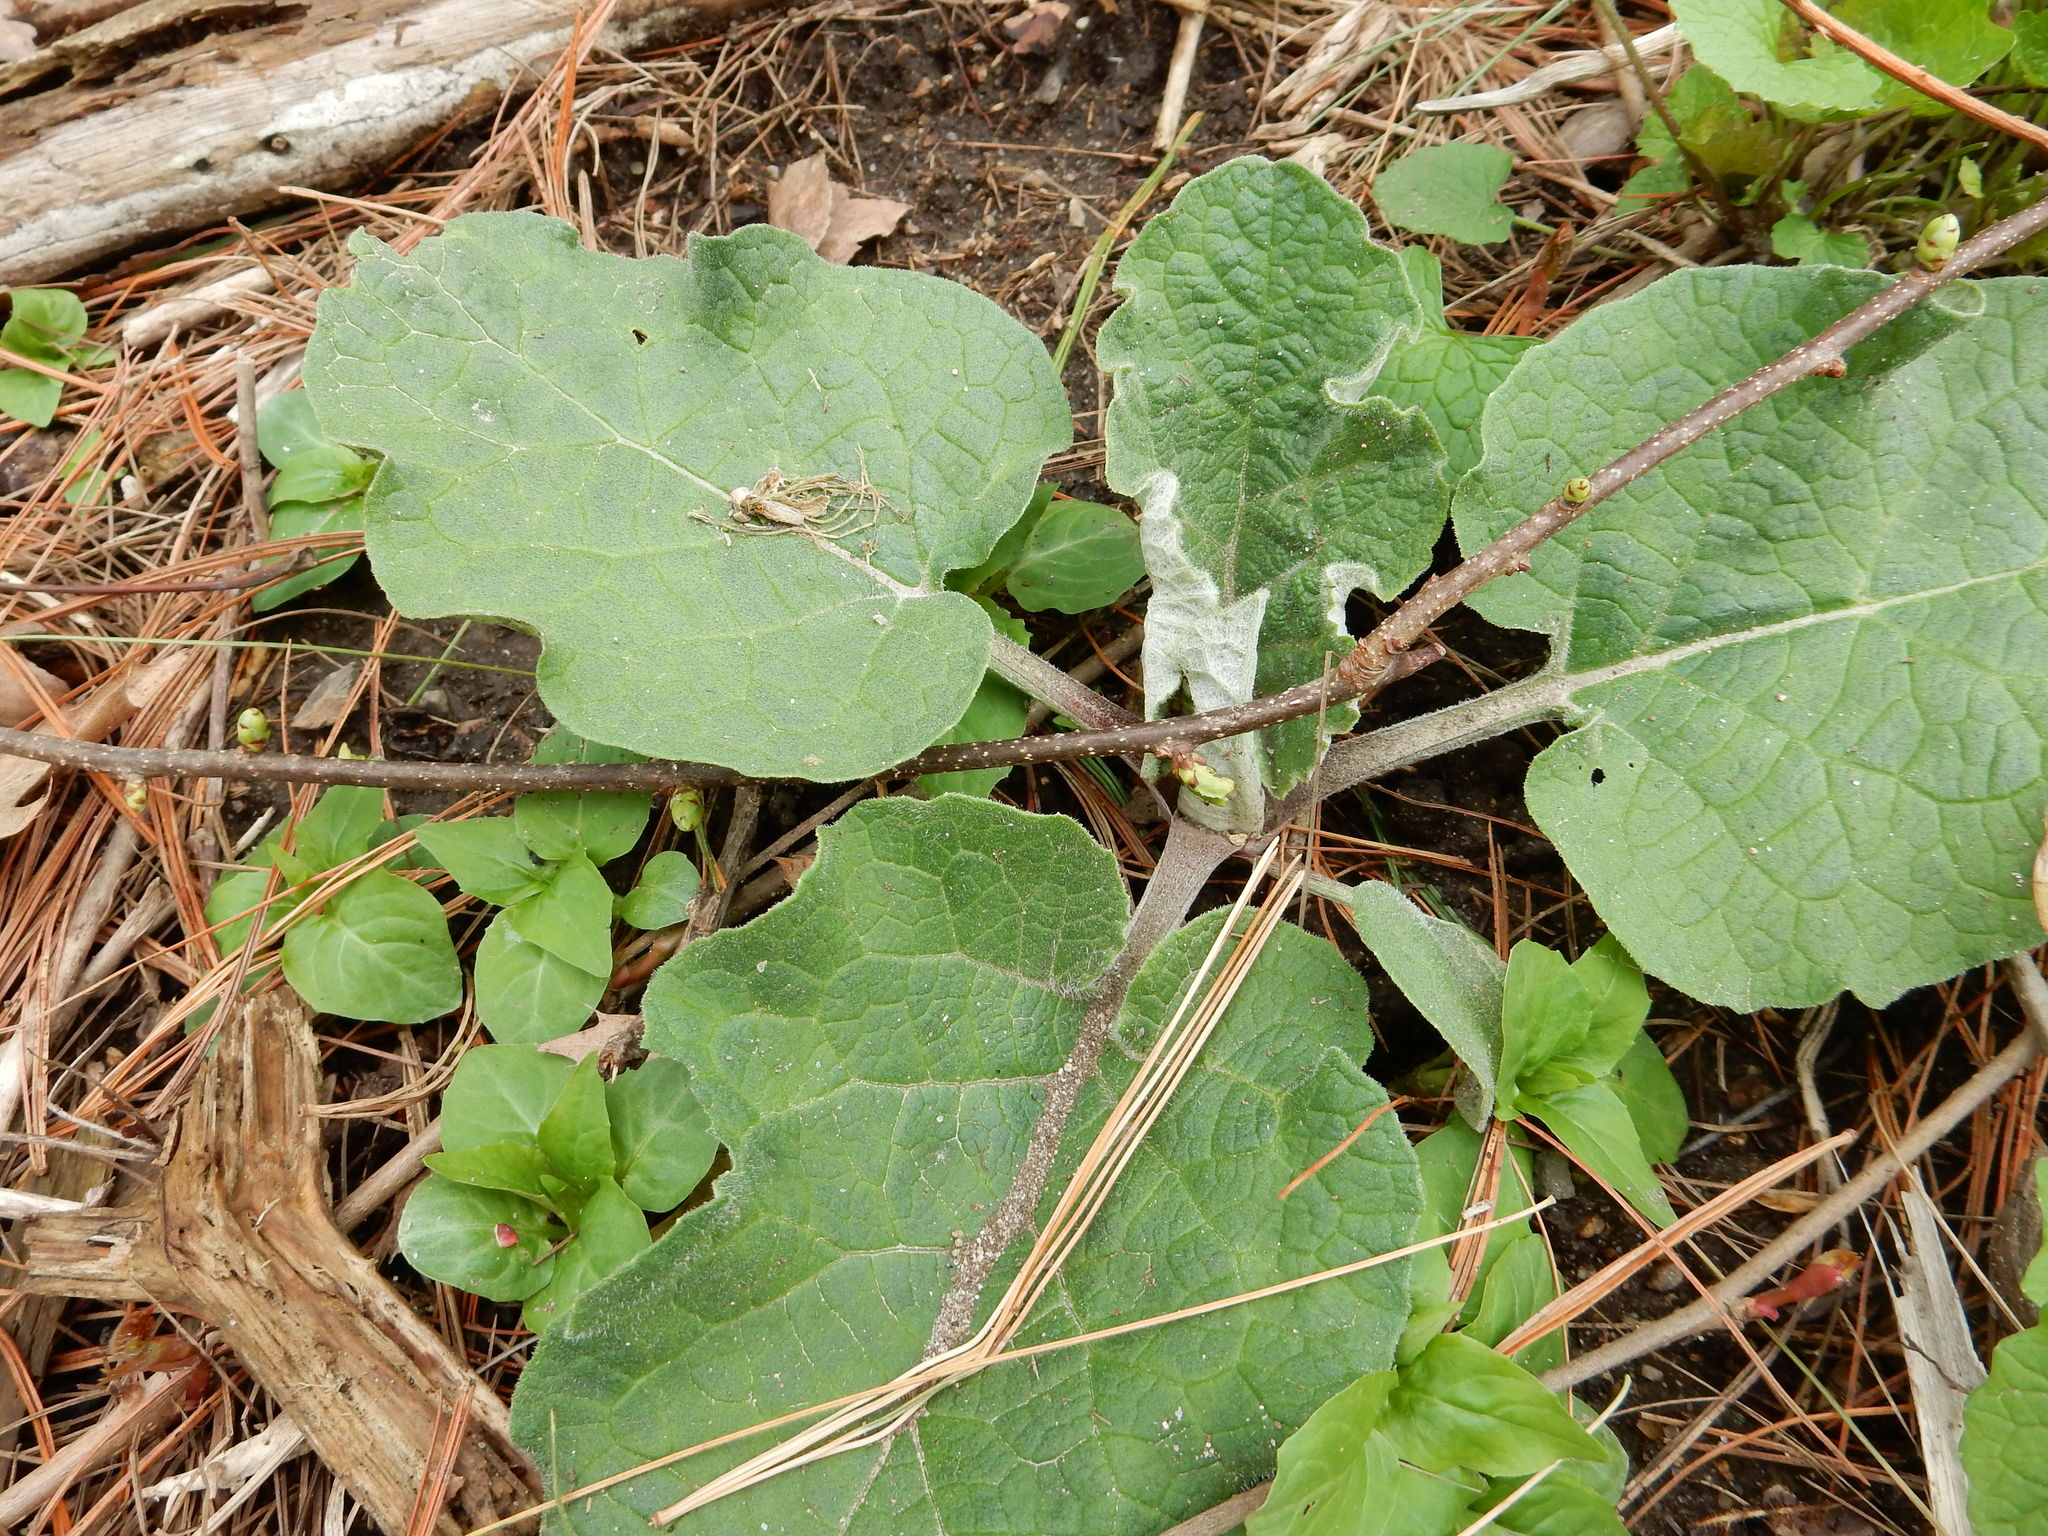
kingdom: Plantae
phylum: Tracheophyta
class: Magnoliopsida
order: Asterales
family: Asteraceae
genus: Arctium
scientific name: Arctium
